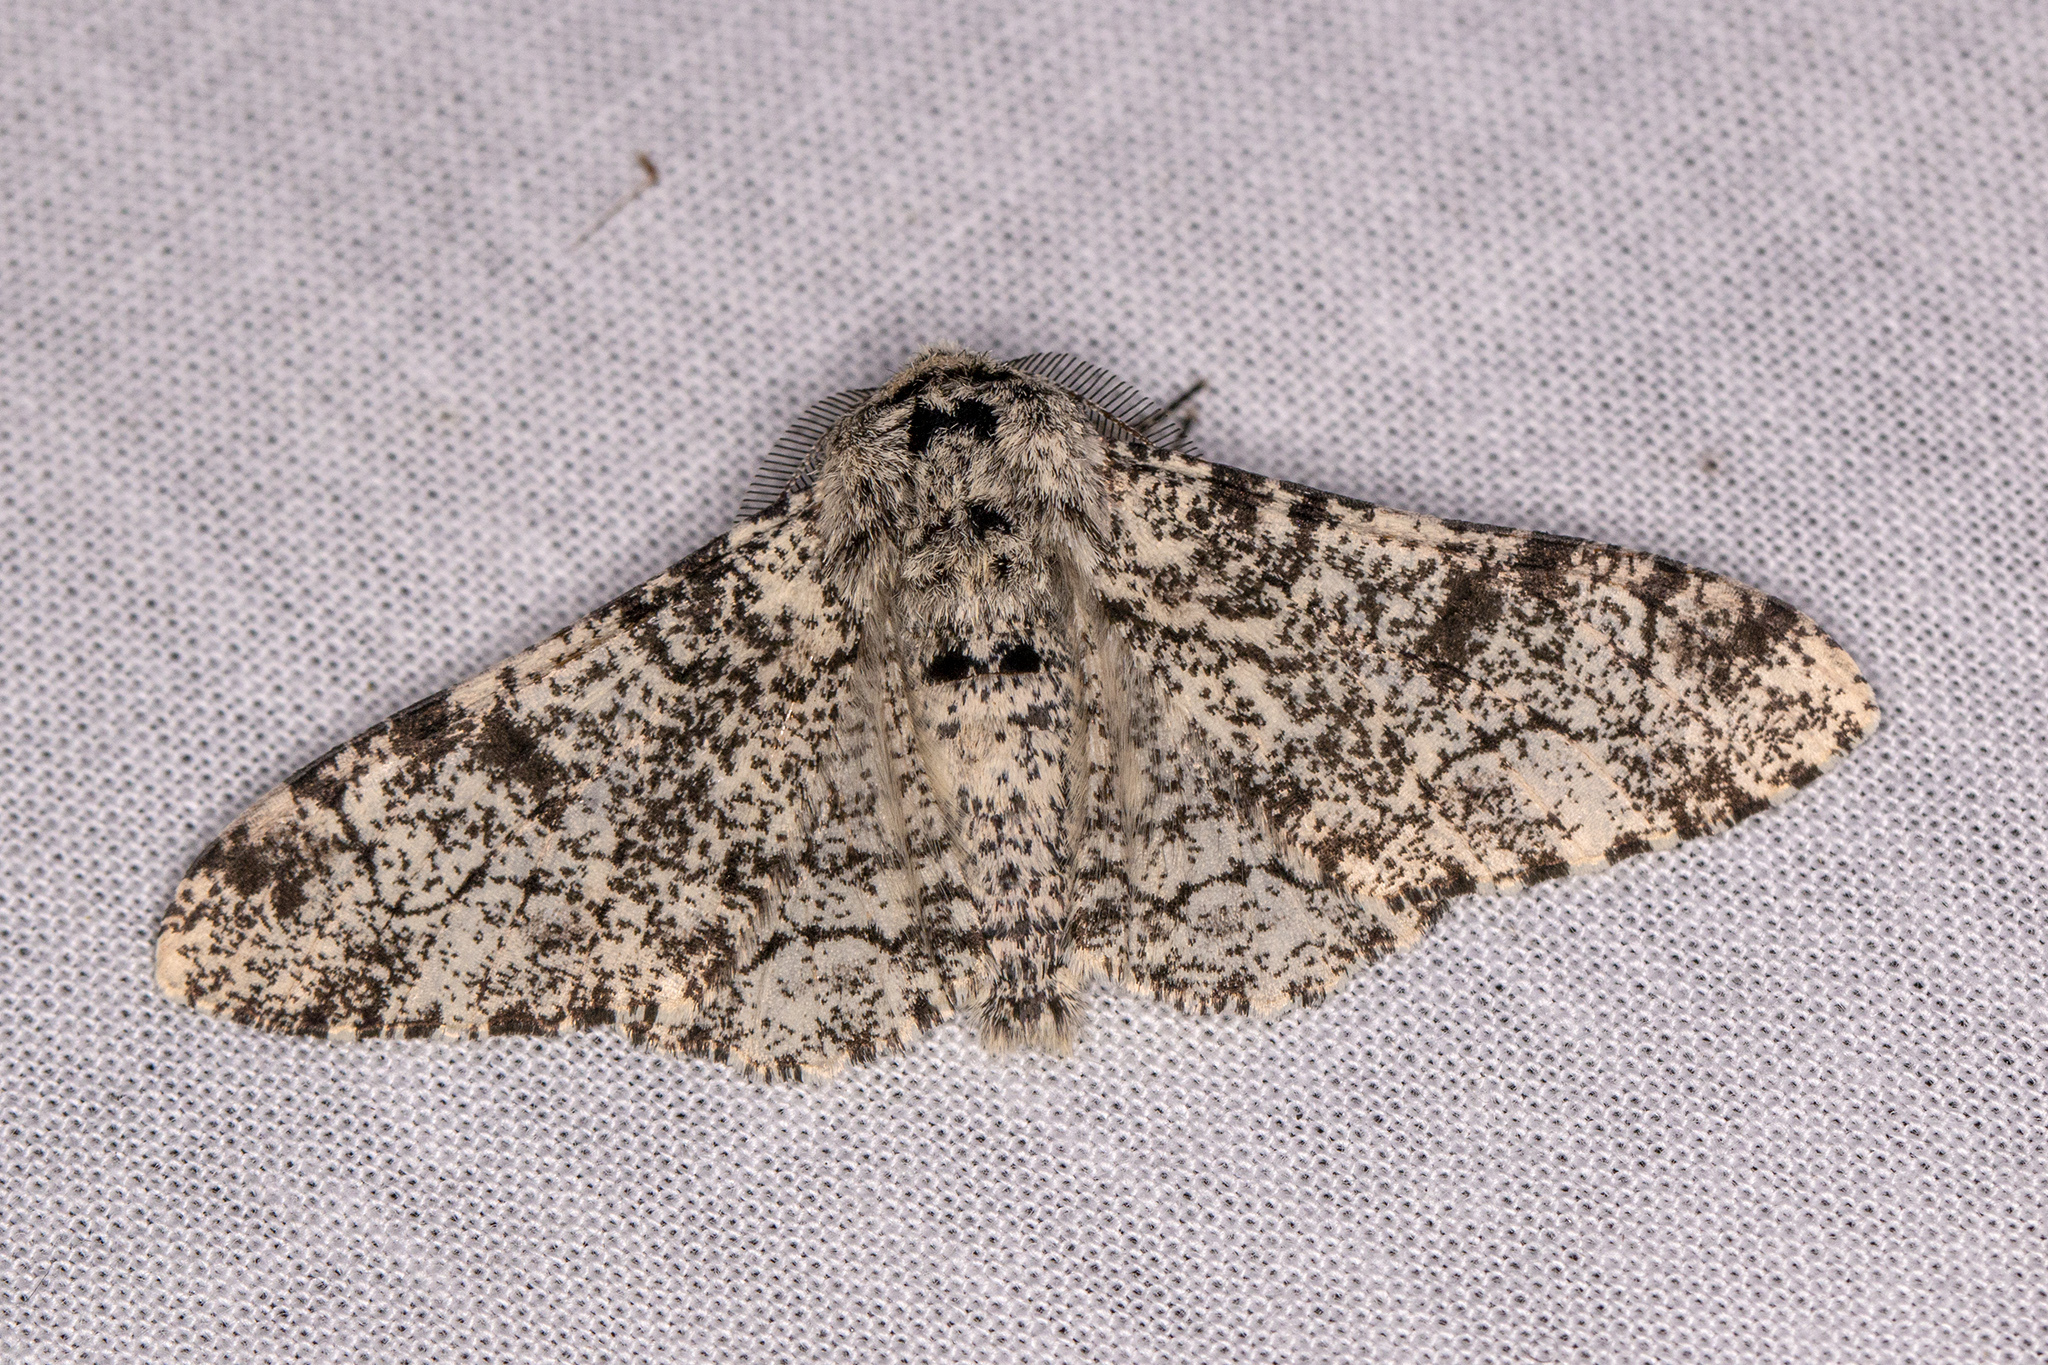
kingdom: Animalia
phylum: Arthropoda
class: Insecta
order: Lepidoptera
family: Geometridae
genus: Biston
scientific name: Biston betularia
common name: Peppered moth
